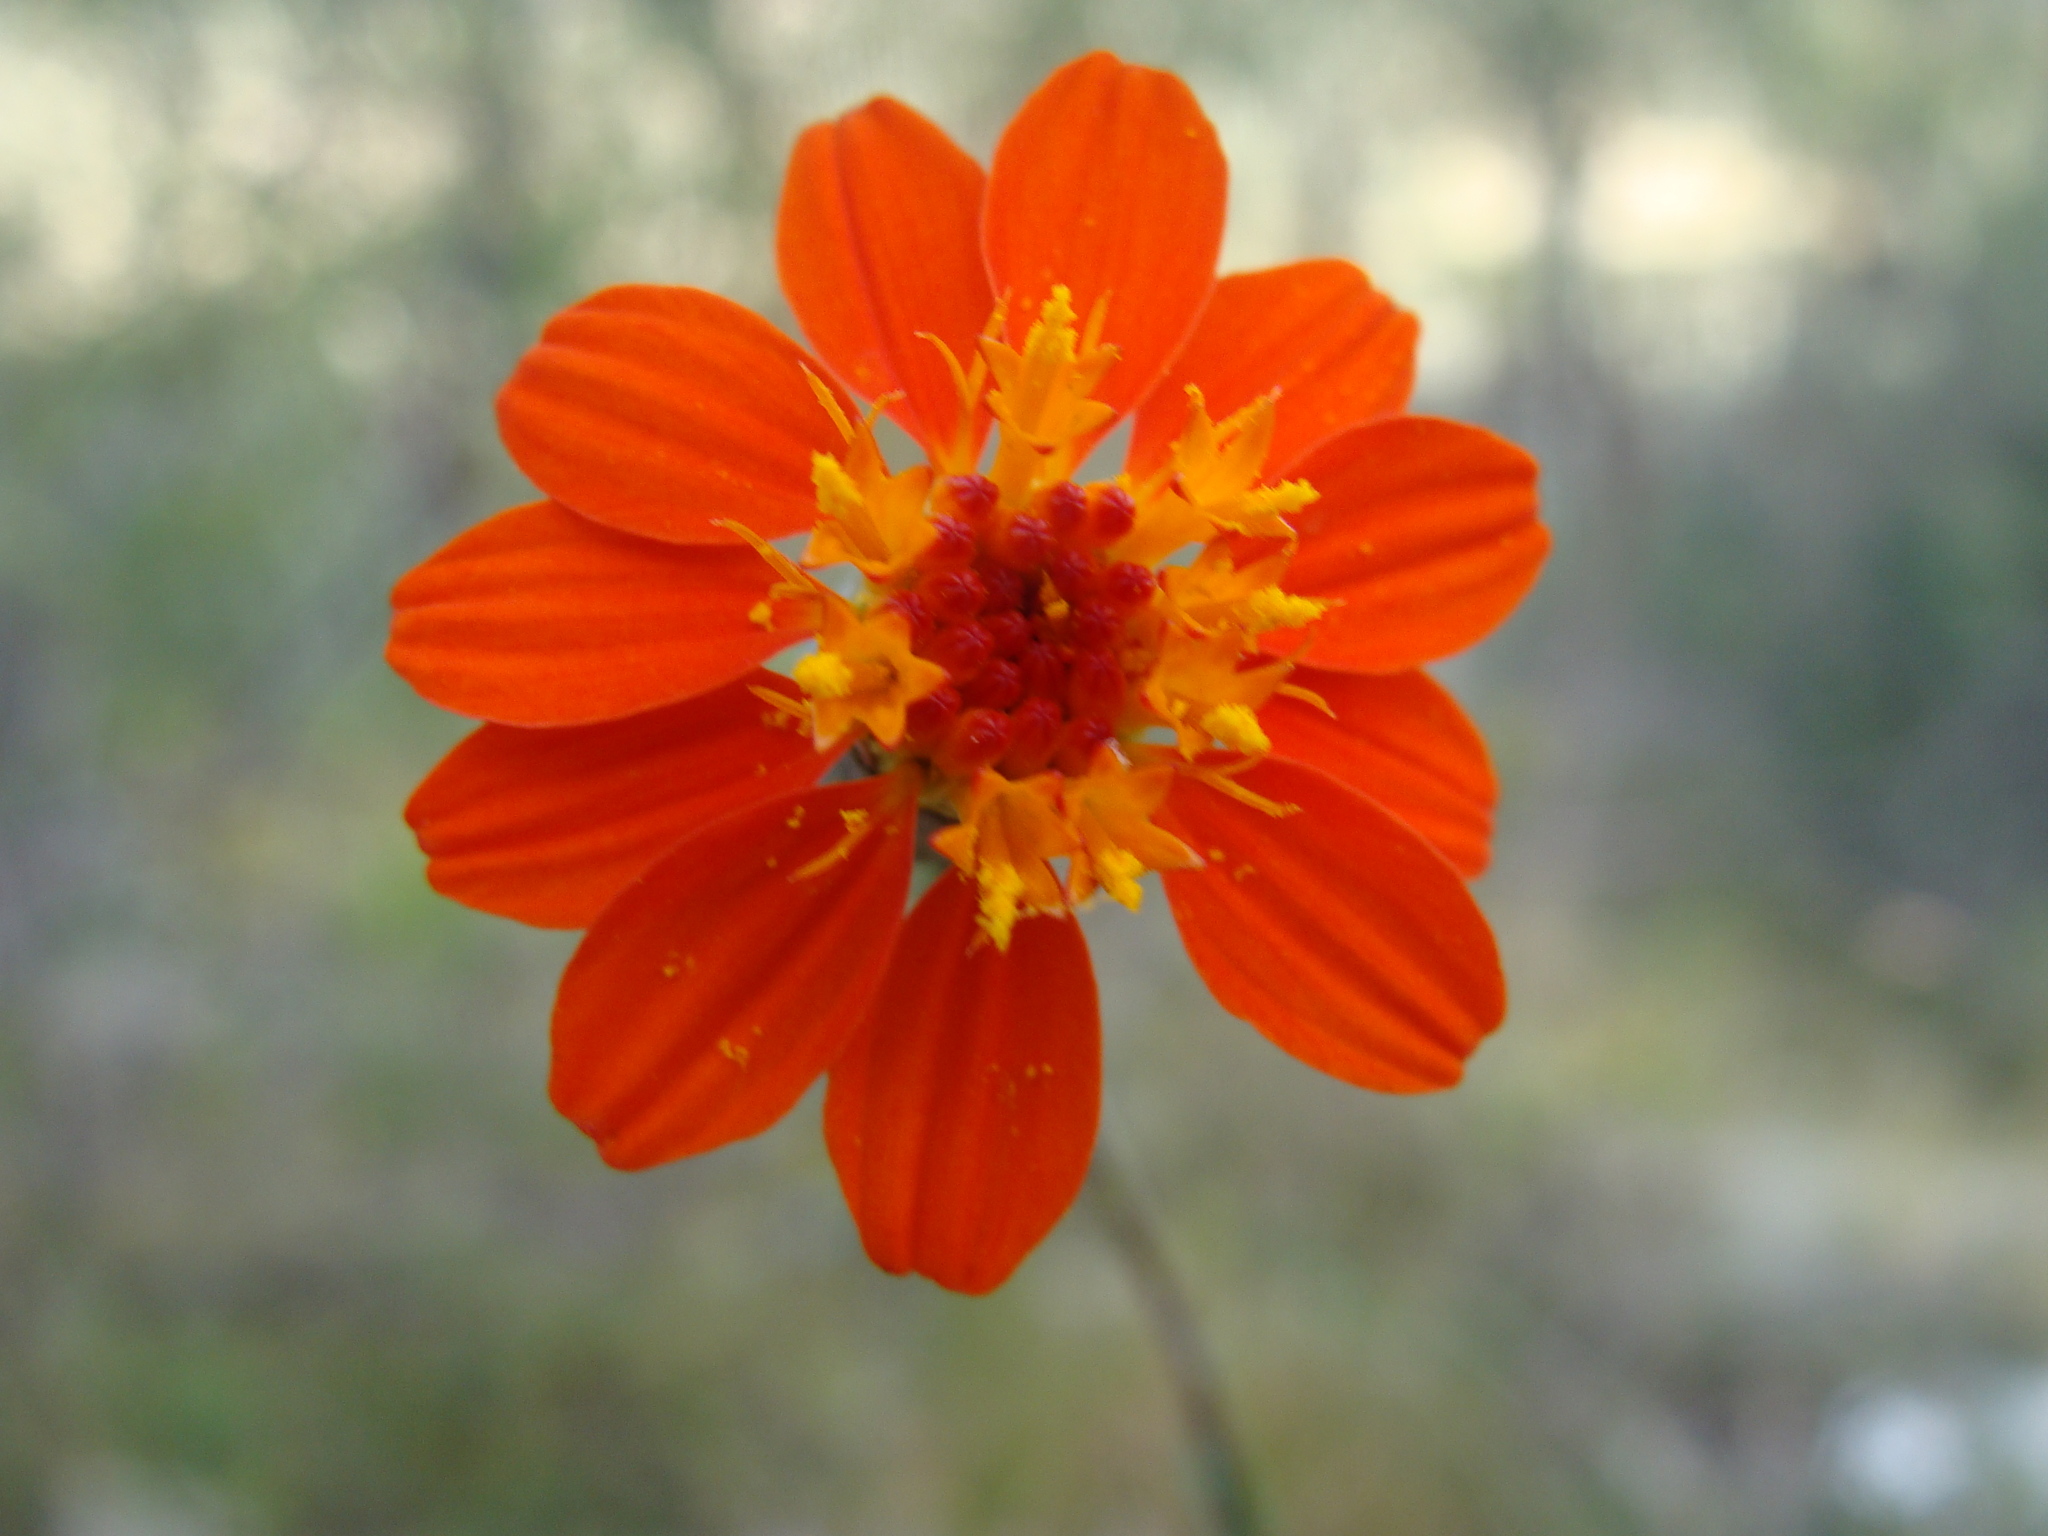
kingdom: Plantae
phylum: Tracheophyta
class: Magnoliopsida
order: Asterales
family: Asteraceae
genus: Gymnolaena
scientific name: Gymnolaena oaxacana
